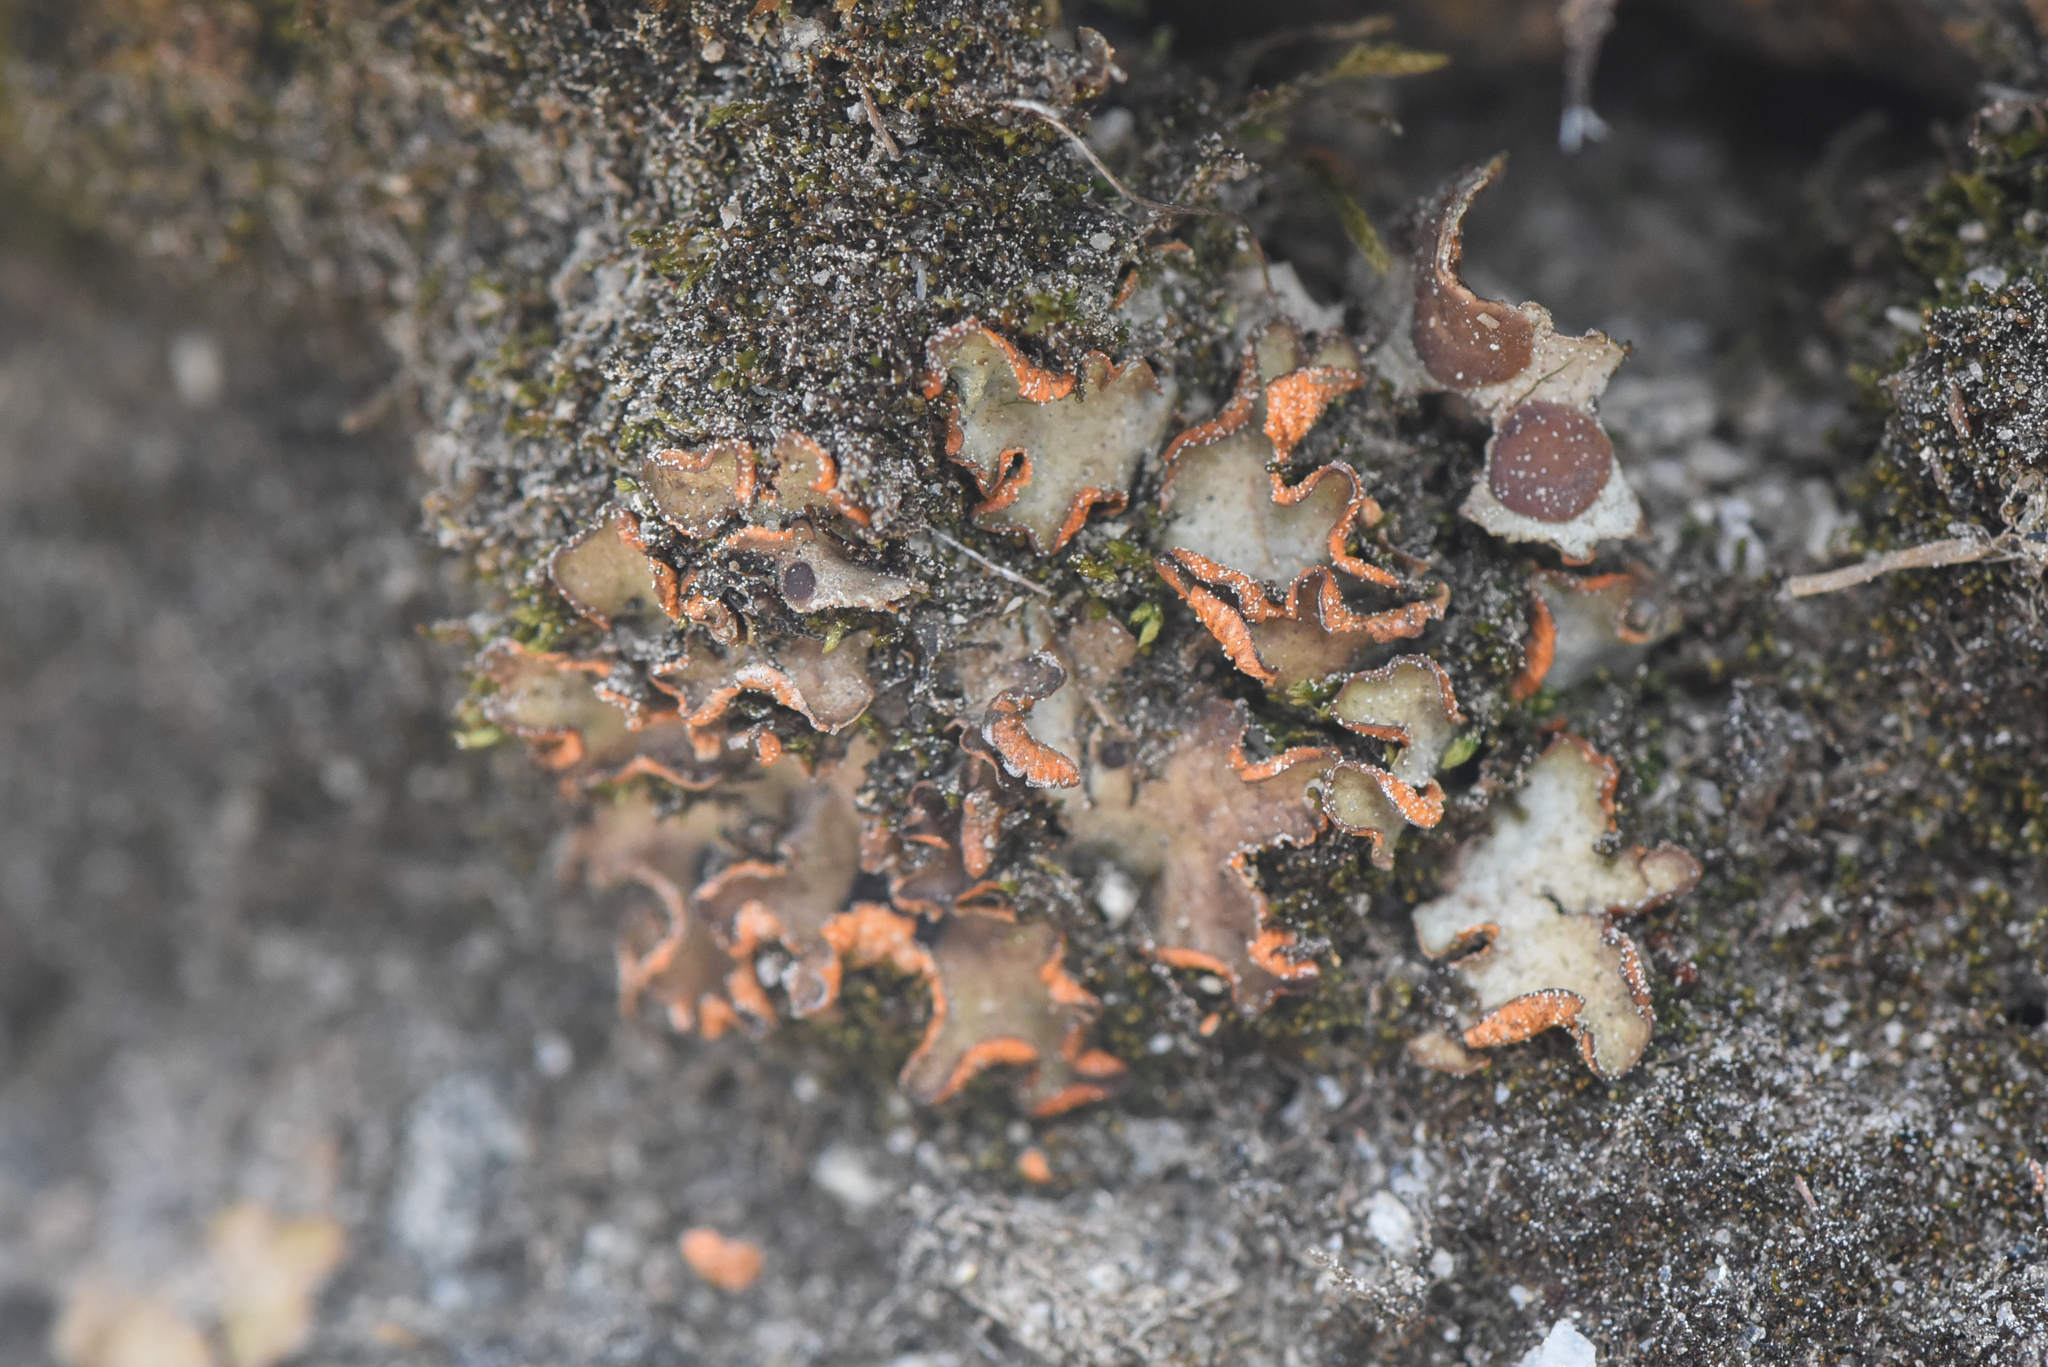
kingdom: Fungi
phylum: Ascomycota
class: Lecanoromycetes
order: Peltigerales
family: Peltigeraceae
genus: Solorina
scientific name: Solorina crocea
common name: Mountain saffron
